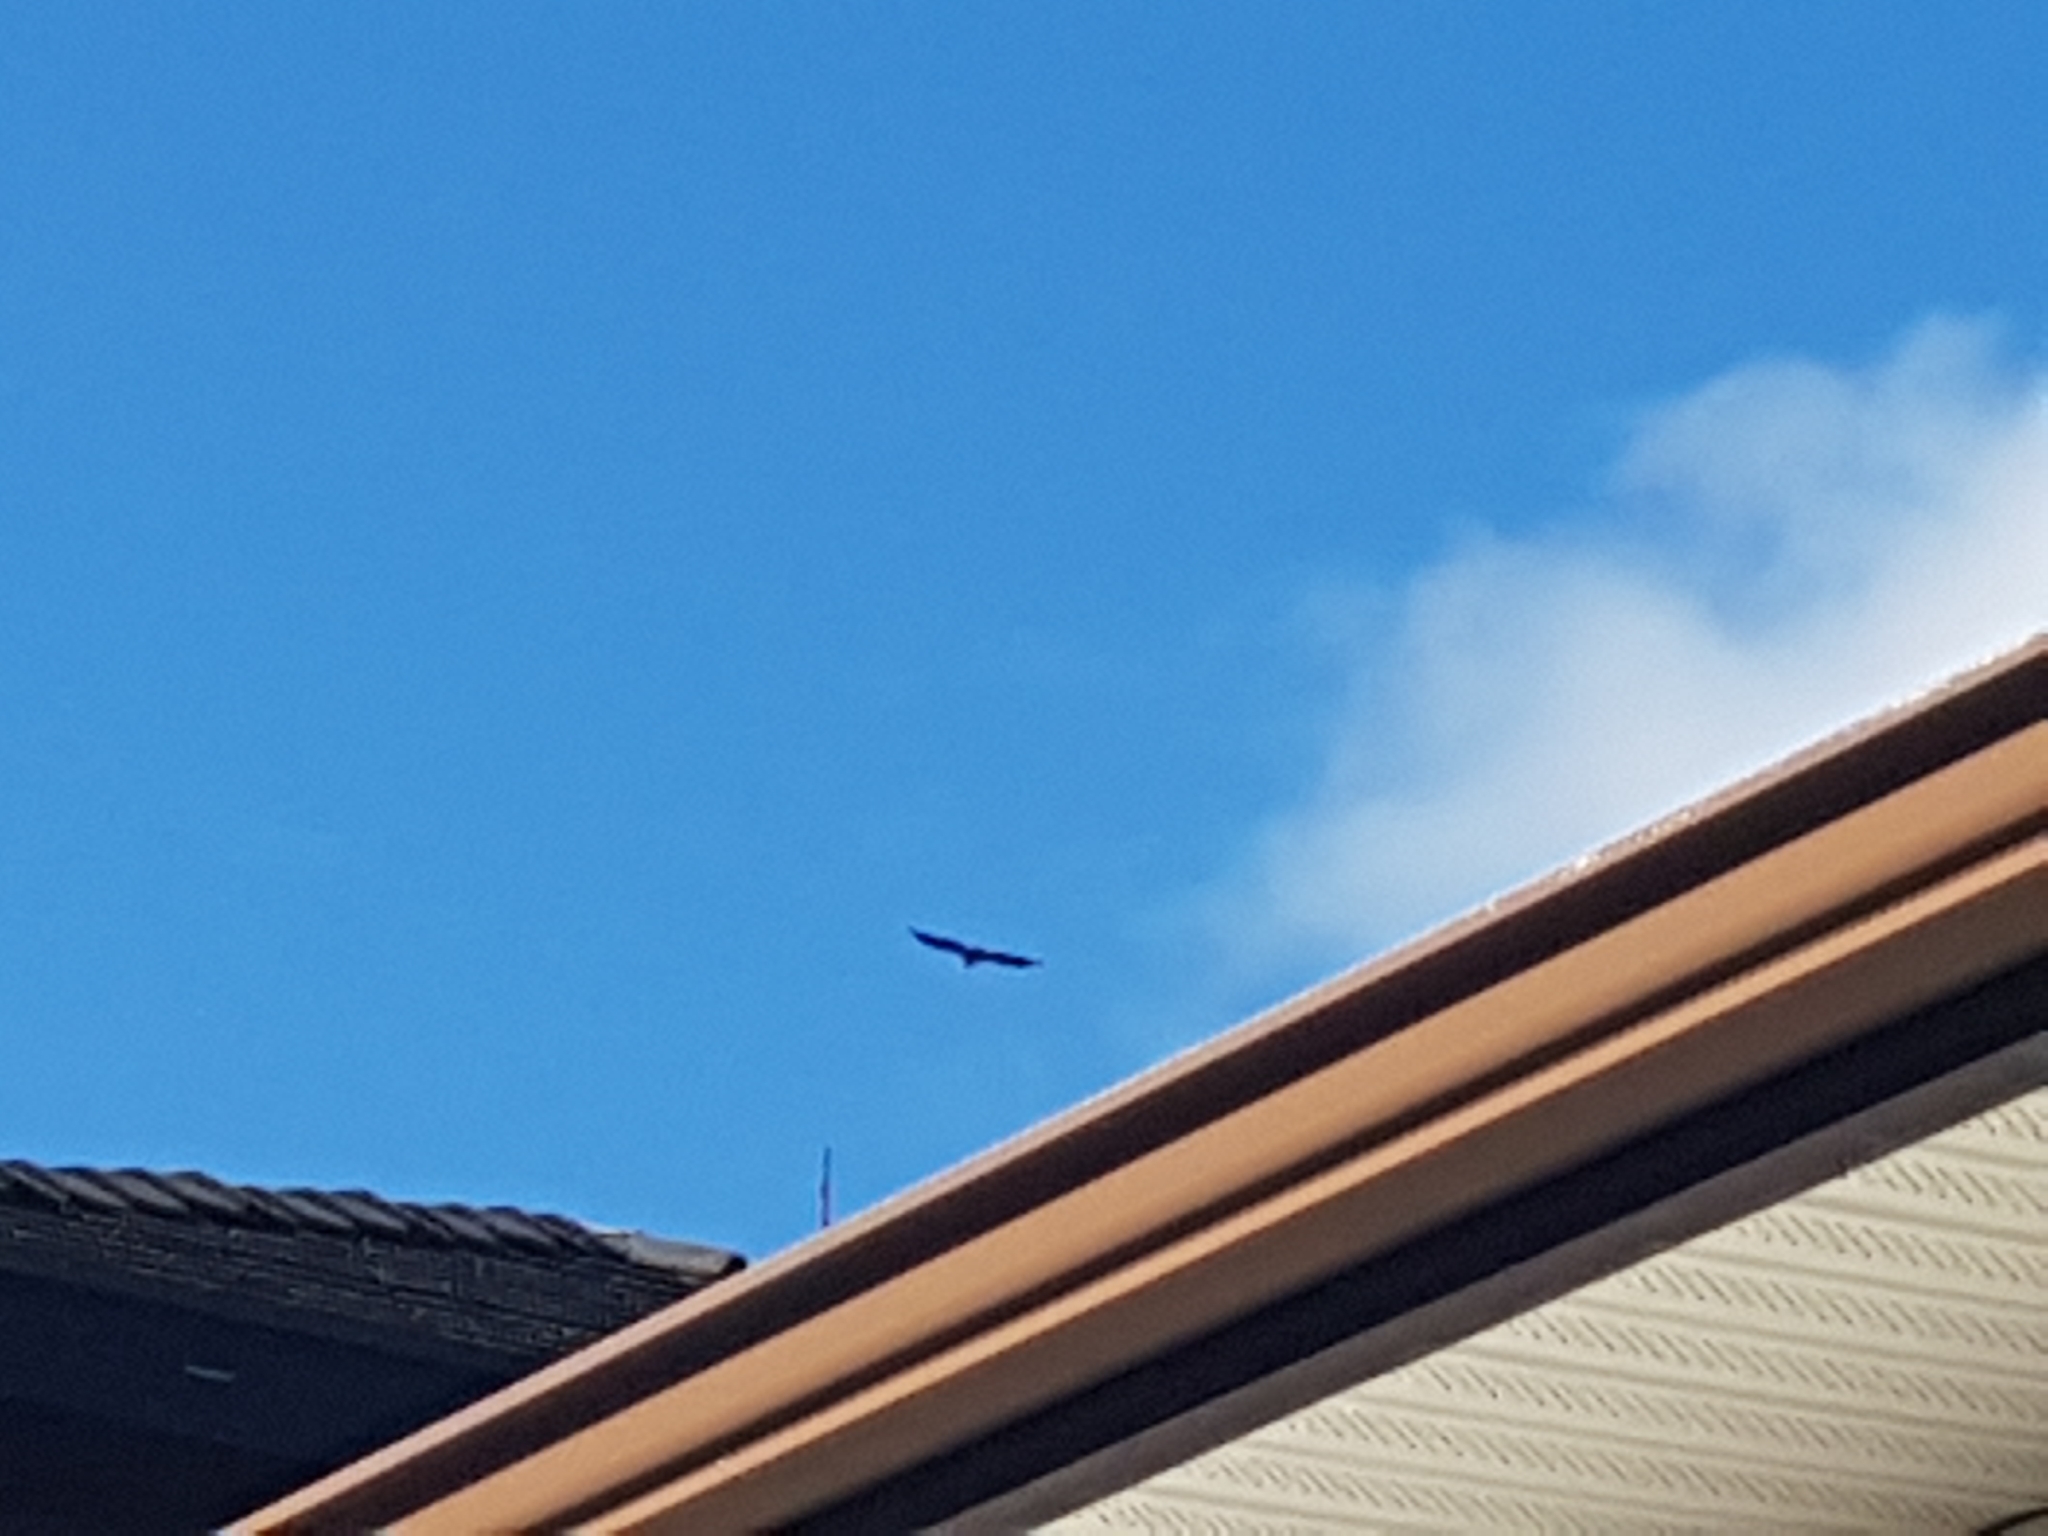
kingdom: Animalia
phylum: Chordata
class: Aves
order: Accipitriformes
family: Accipitridae
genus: Haliaeetus
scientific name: Haliaeetus leucocephalus
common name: Bald eagle
